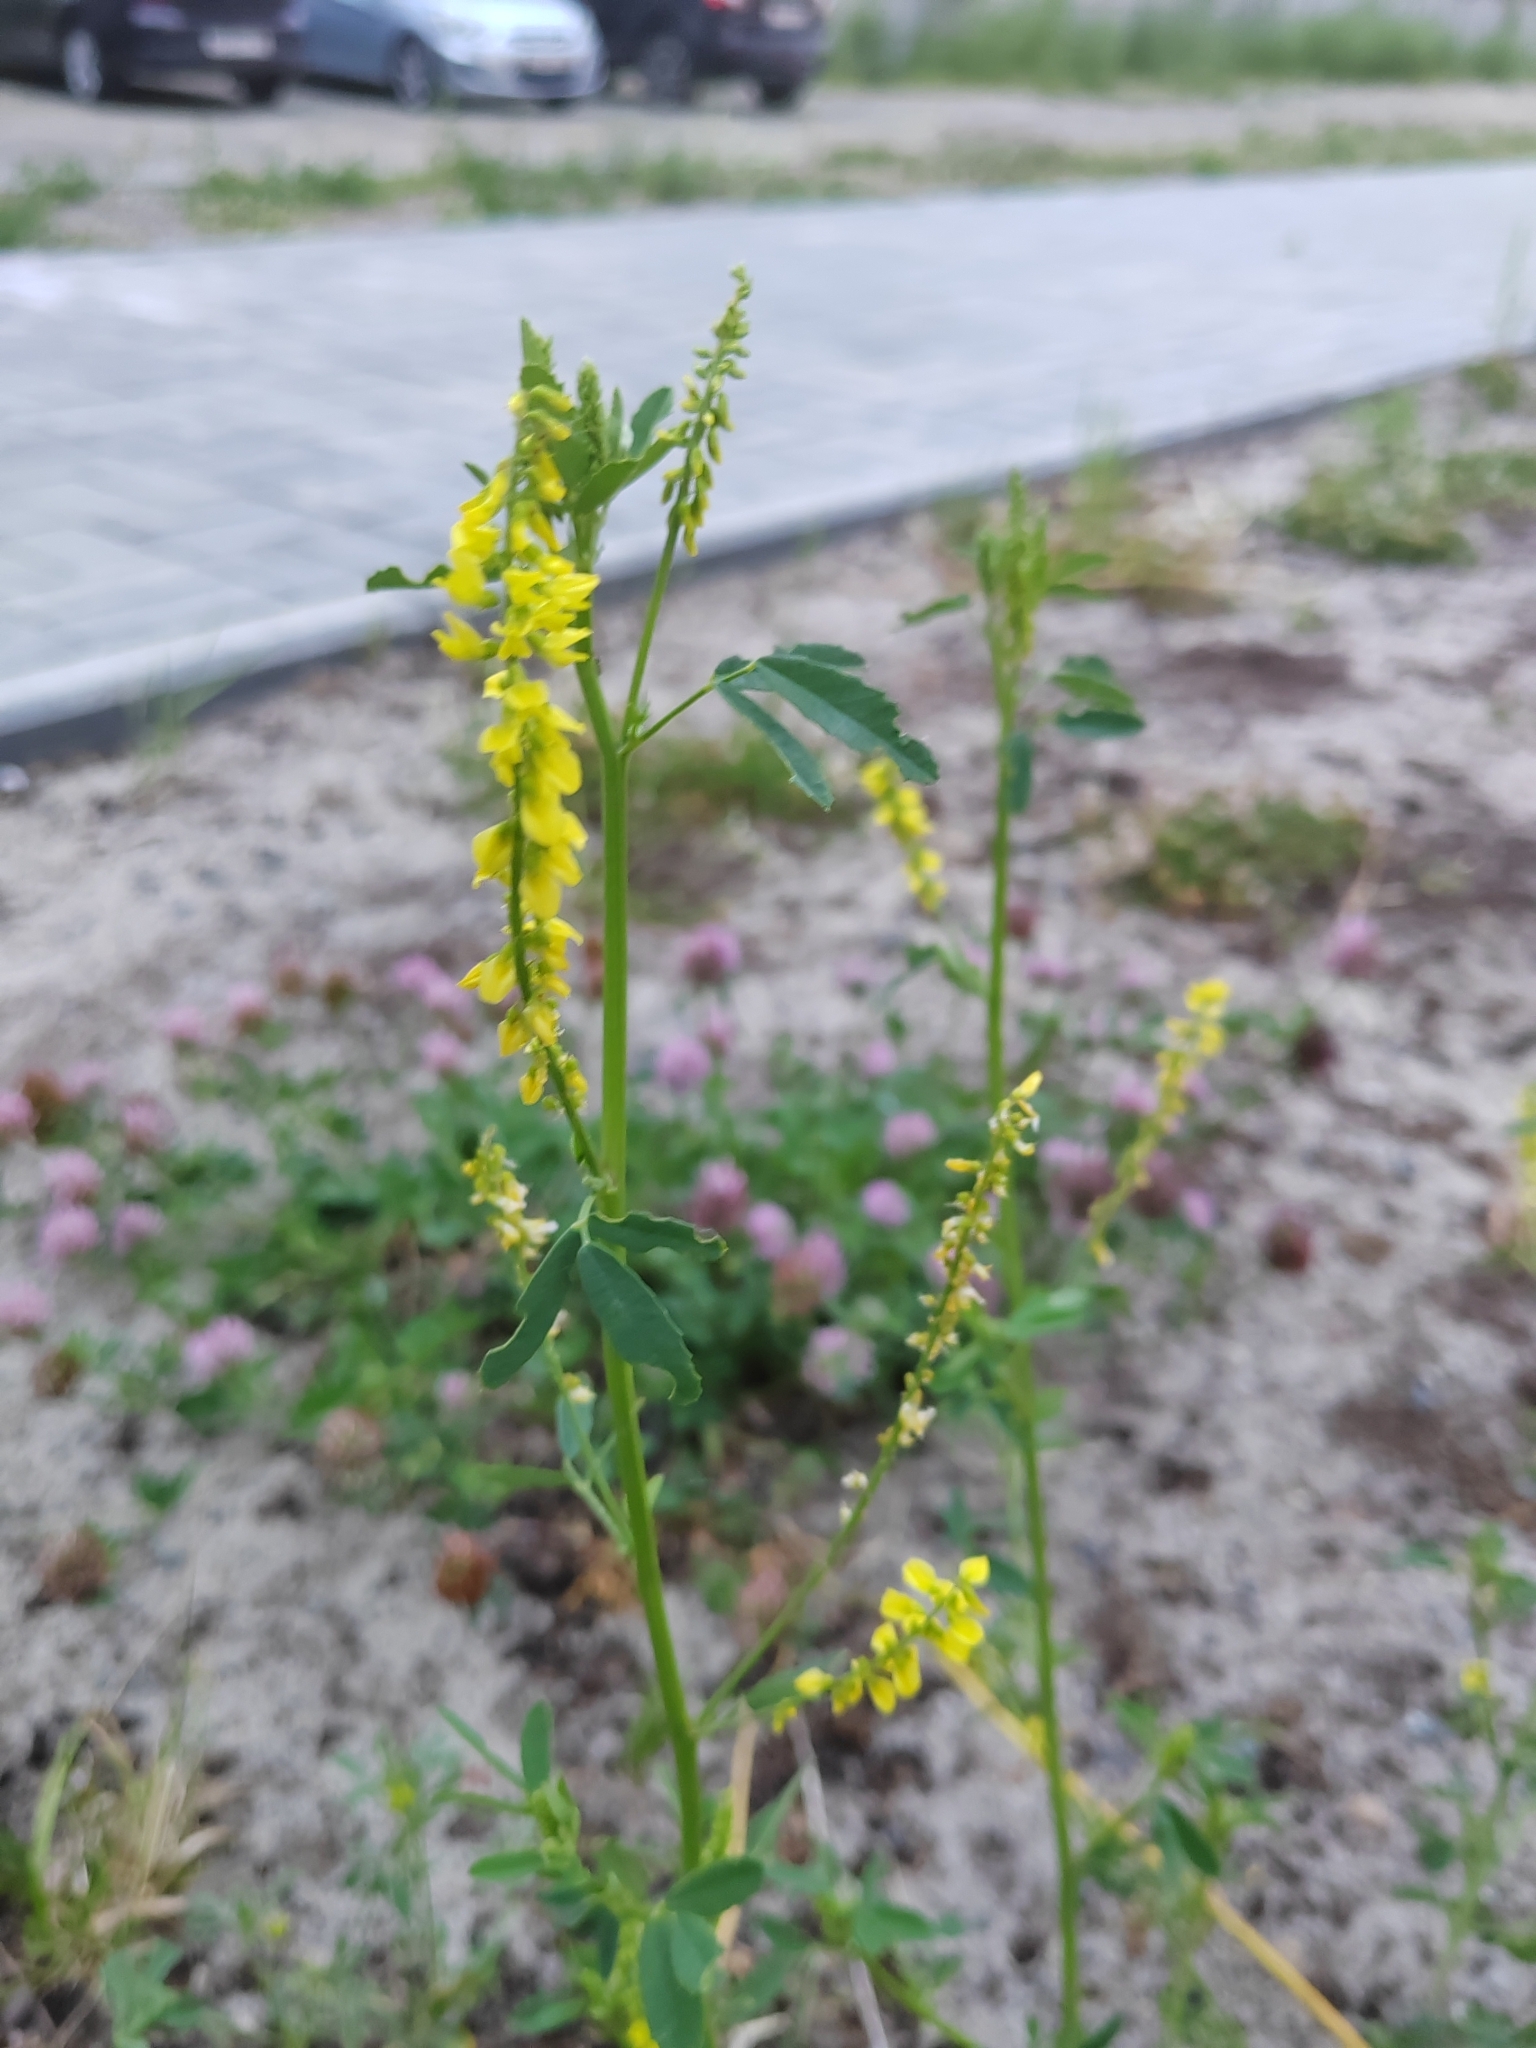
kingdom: Plantae
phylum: Tracheophyta
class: Magnoliopsida
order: Fabales
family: Fabaceae
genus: Melilotus
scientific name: Melilotus officinalis
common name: Sweetclover
